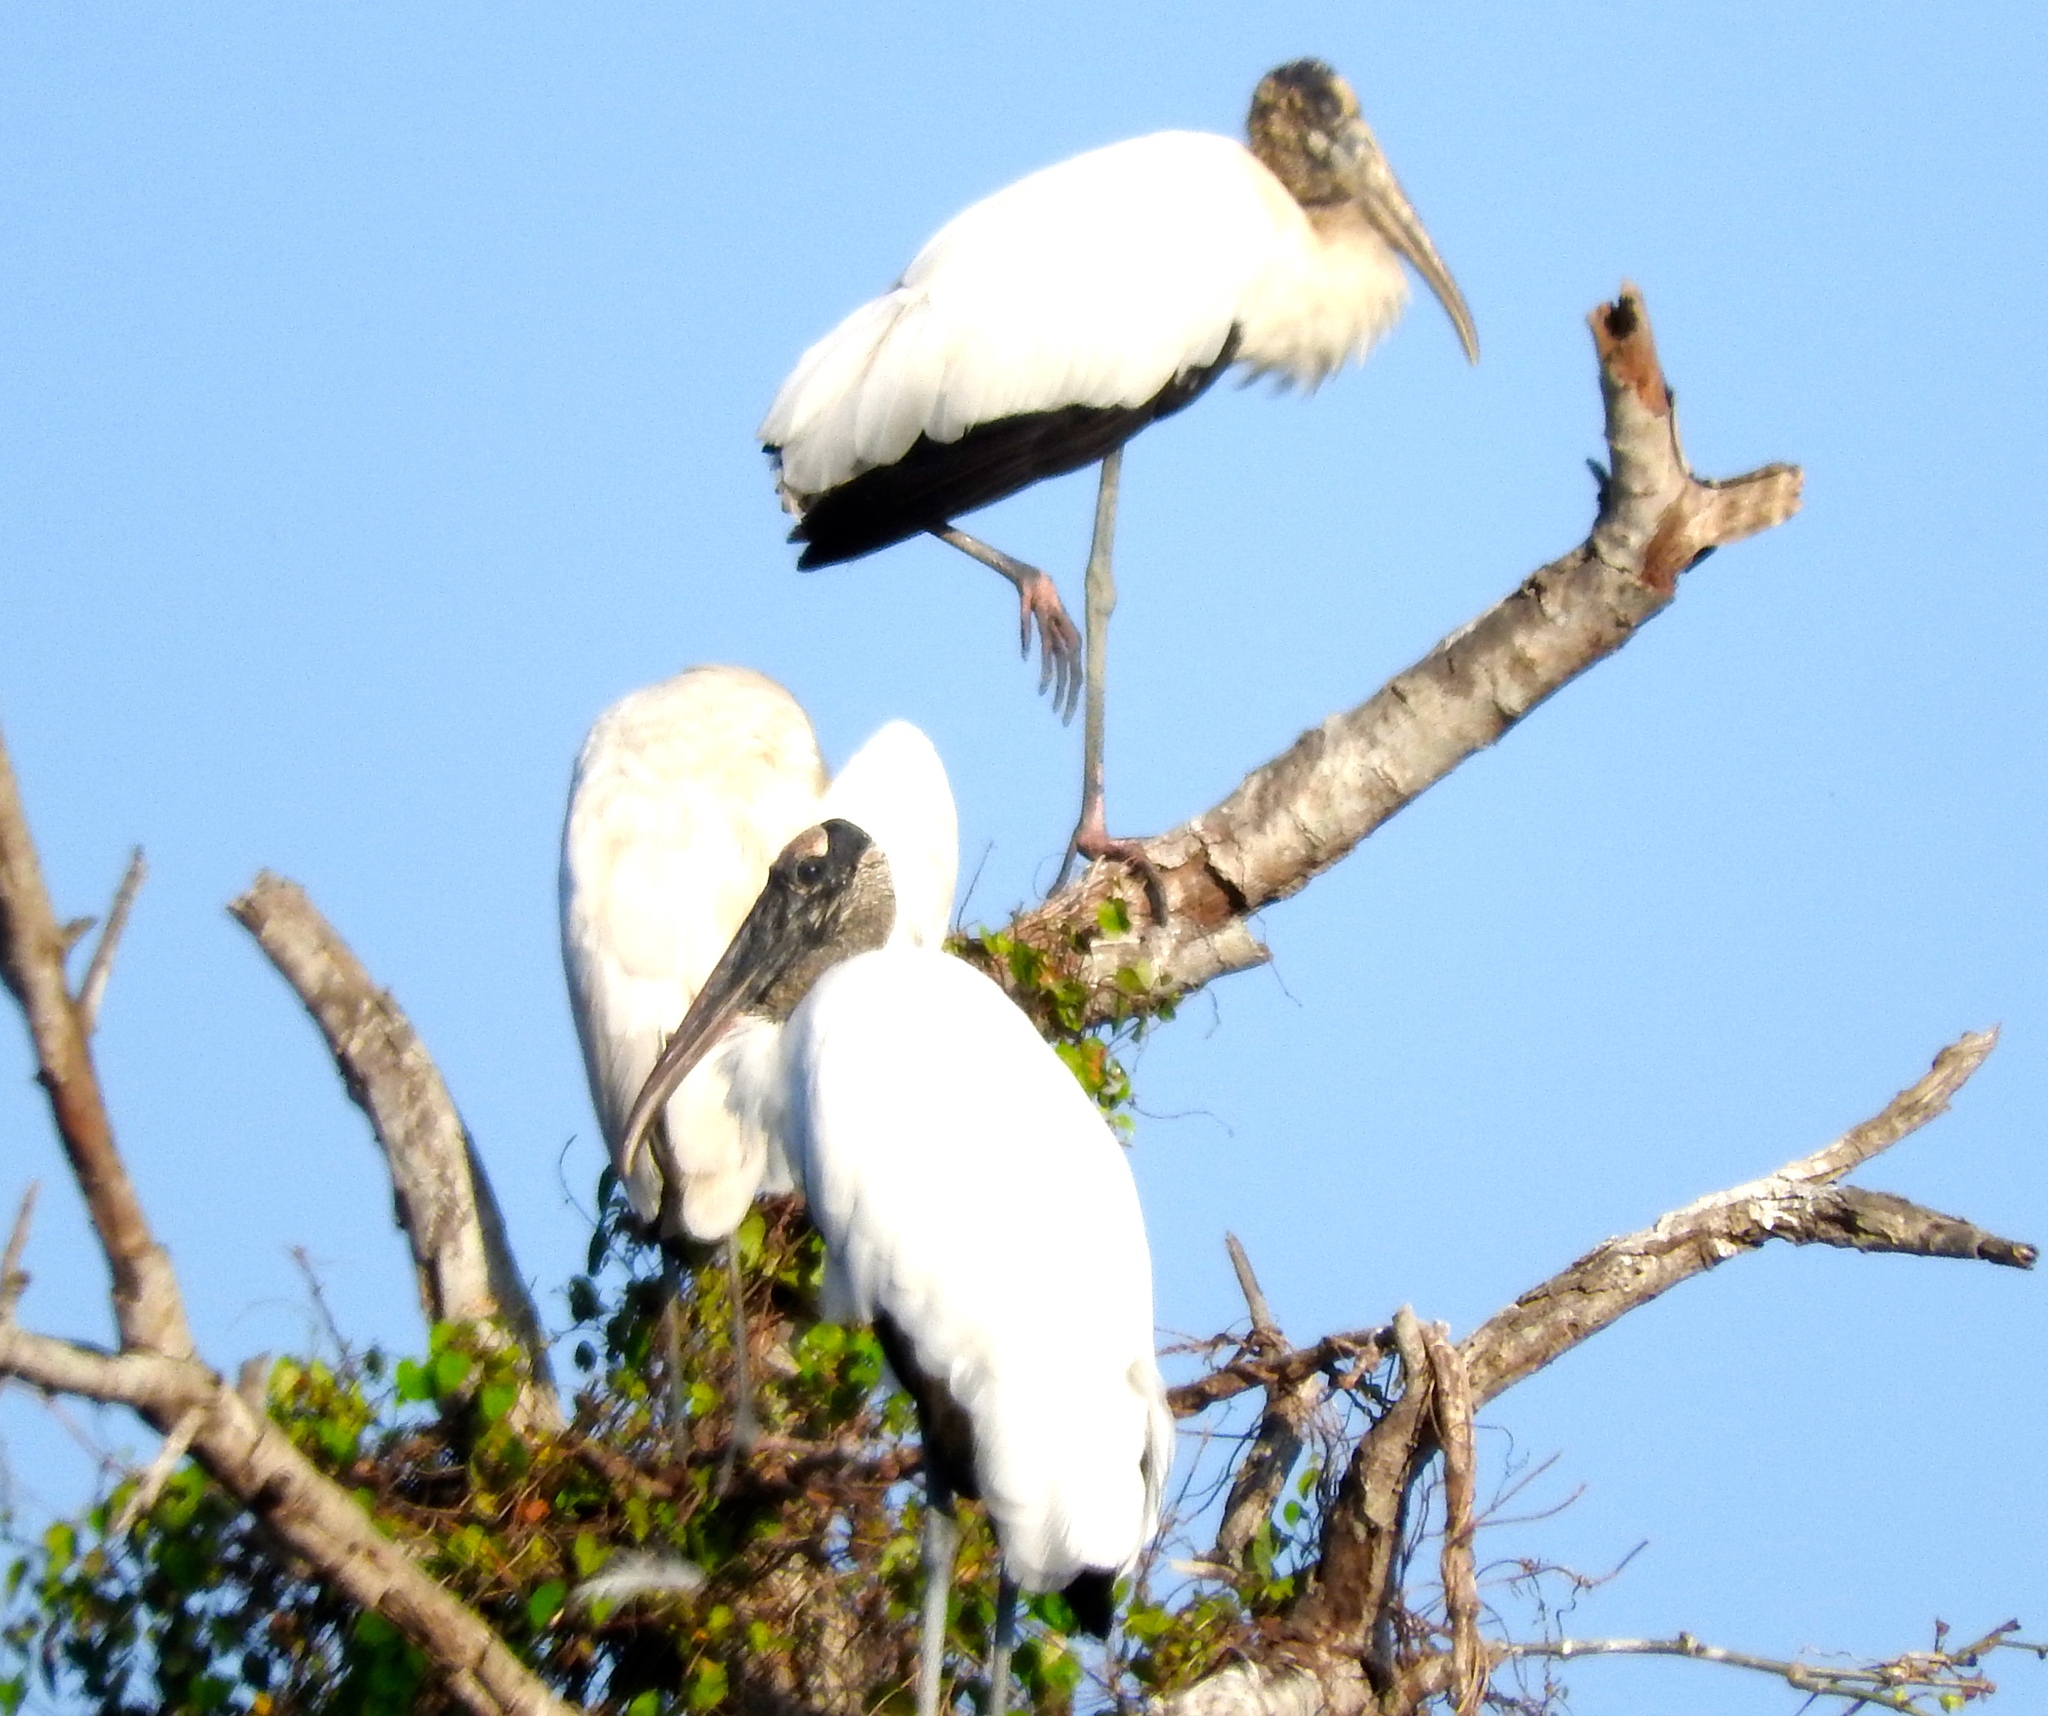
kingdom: Animalia
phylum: Chordata
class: Aves
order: Ciconiiformes
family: Ciconiidae
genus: Mycteria
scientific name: Mycteria americana
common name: Wood stork
